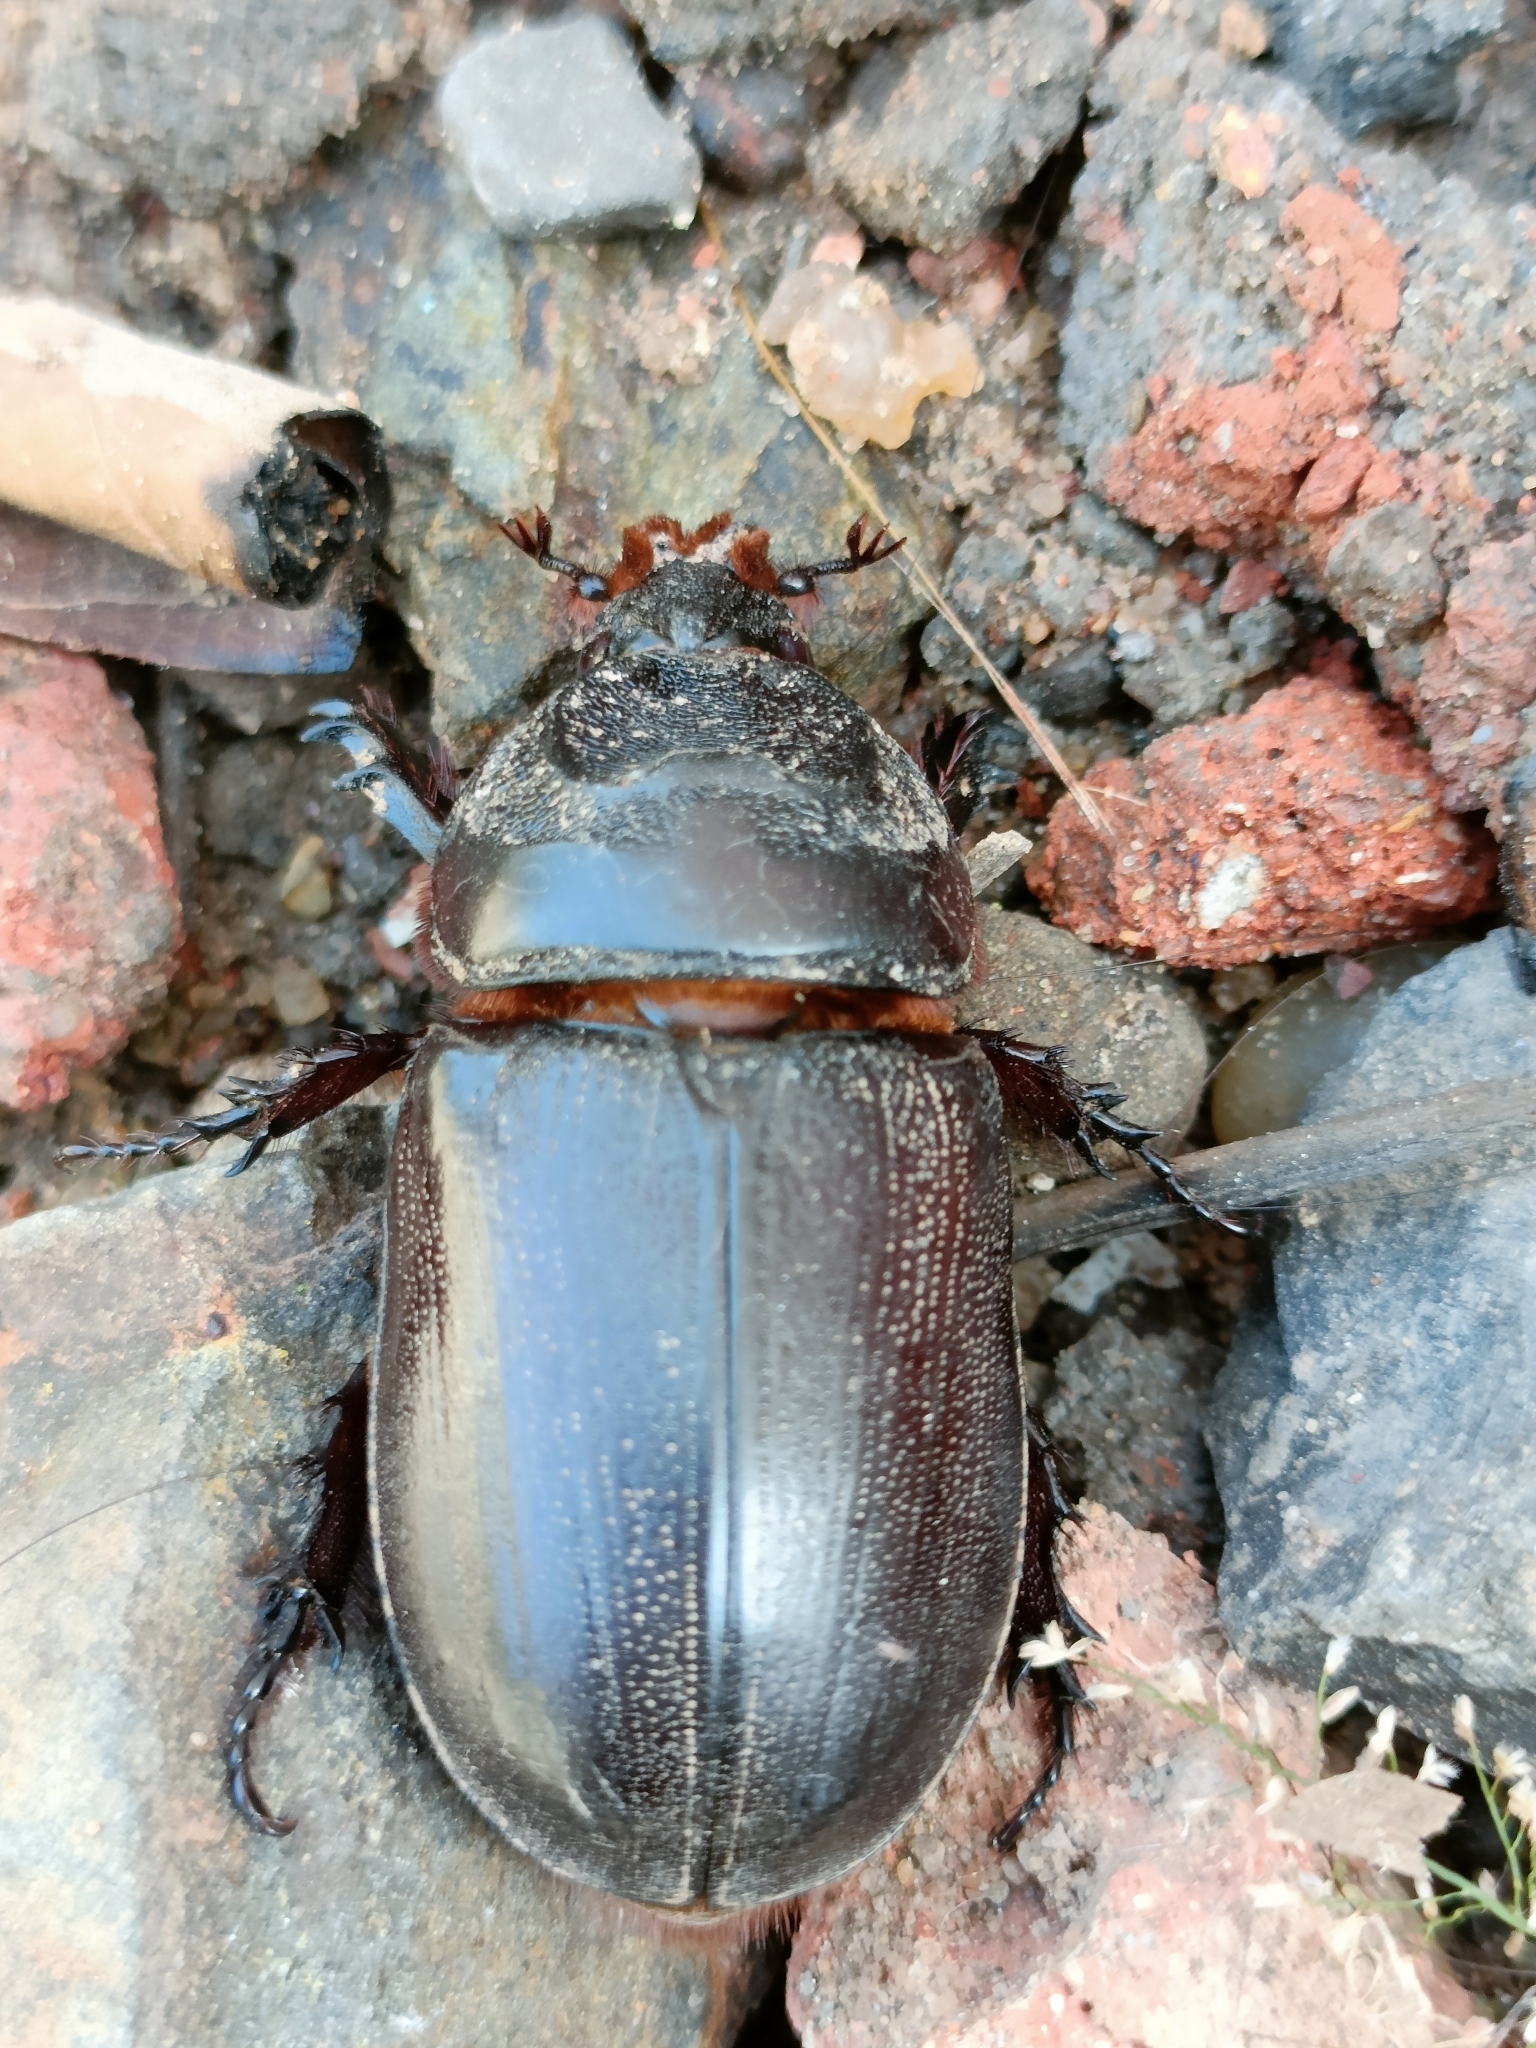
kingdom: Animalia
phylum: Arthropoda
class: Insecta
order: Coleoptera
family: Scarabaeidae
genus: Oryctes
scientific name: Oryctes rhinoceros
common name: Coconut rhinoceros beetle
